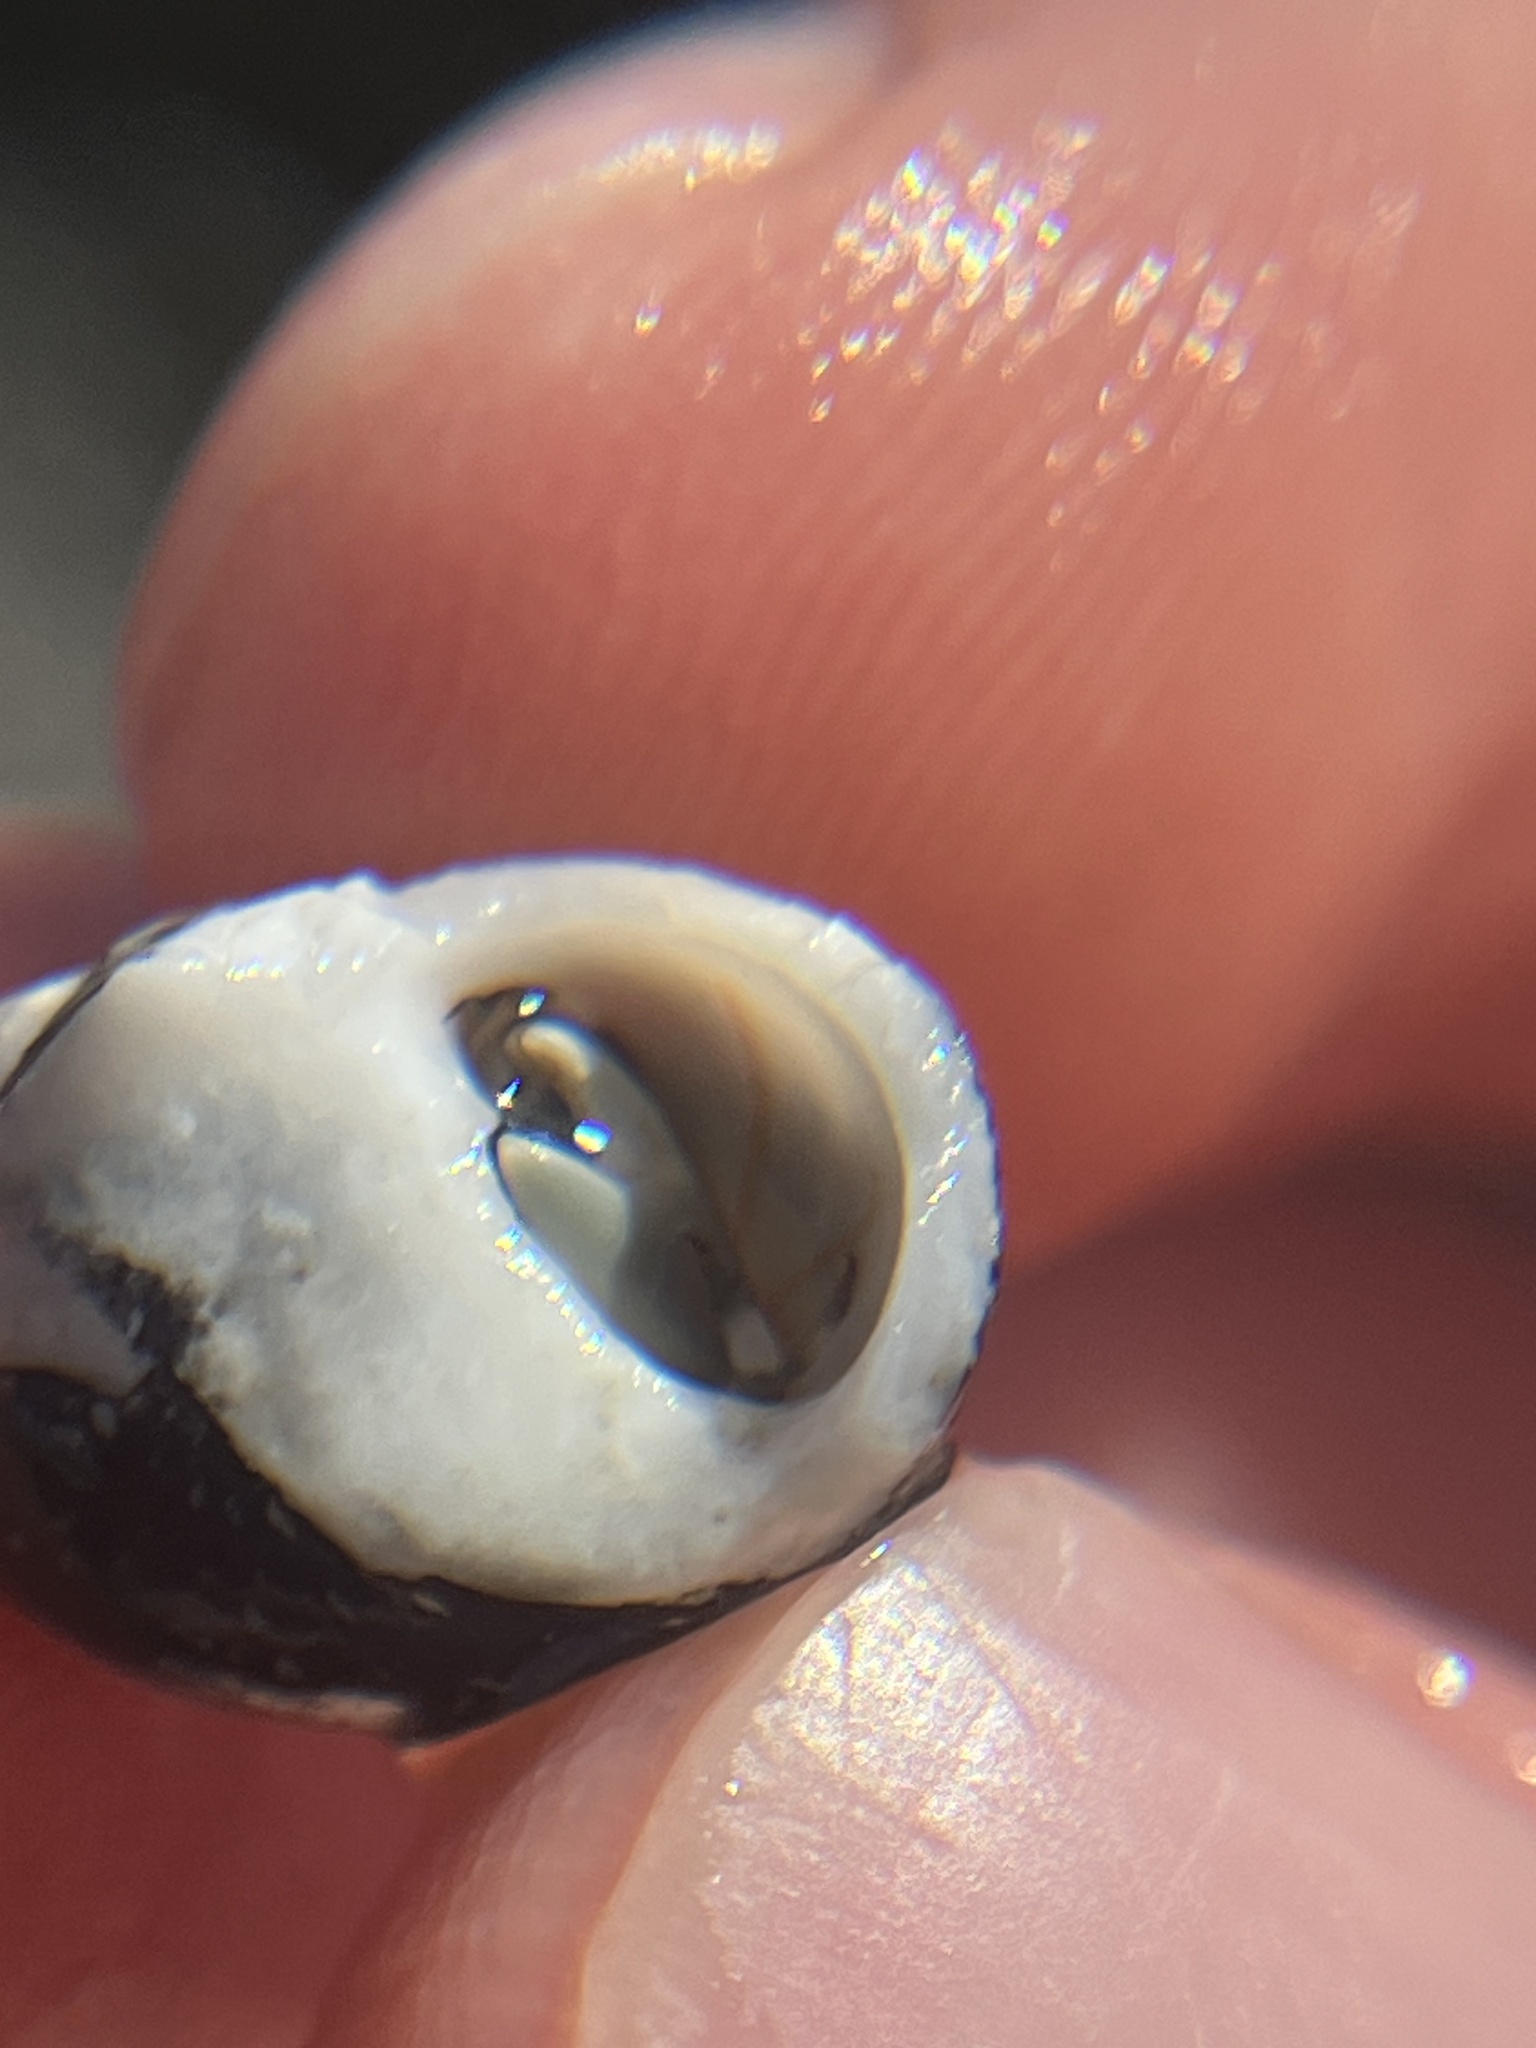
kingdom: Animalia
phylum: Mollusca
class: Gastropoda
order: Cycloneritida
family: Neritidae
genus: Neripteron
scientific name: Neripteron neglectum
